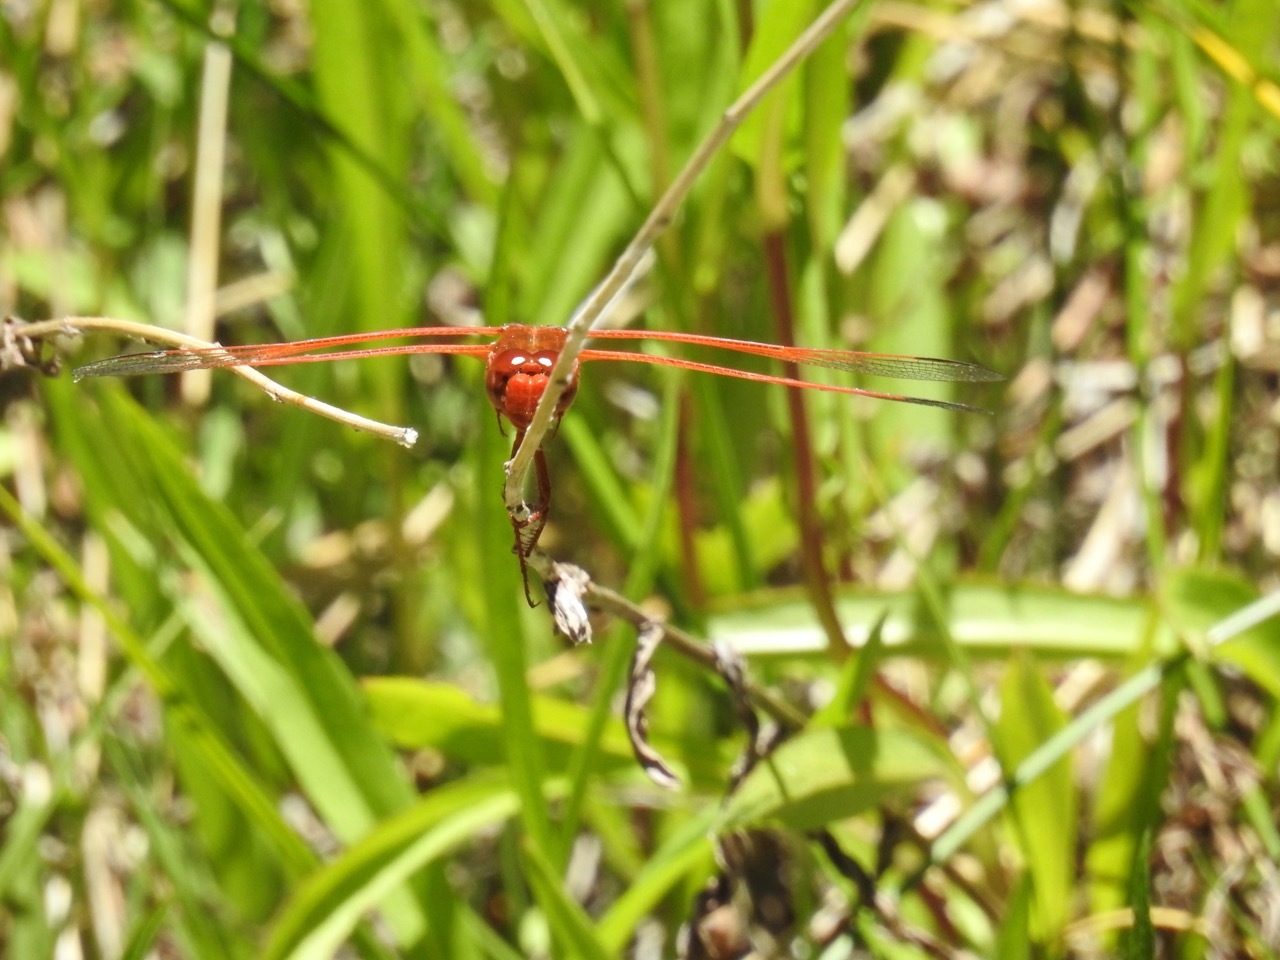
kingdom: Animalia
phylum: Arthropoda
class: Insecta
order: Odonata
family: Libellulidae
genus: Libellula
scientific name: Libellula saturata
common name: Flame skimmer
